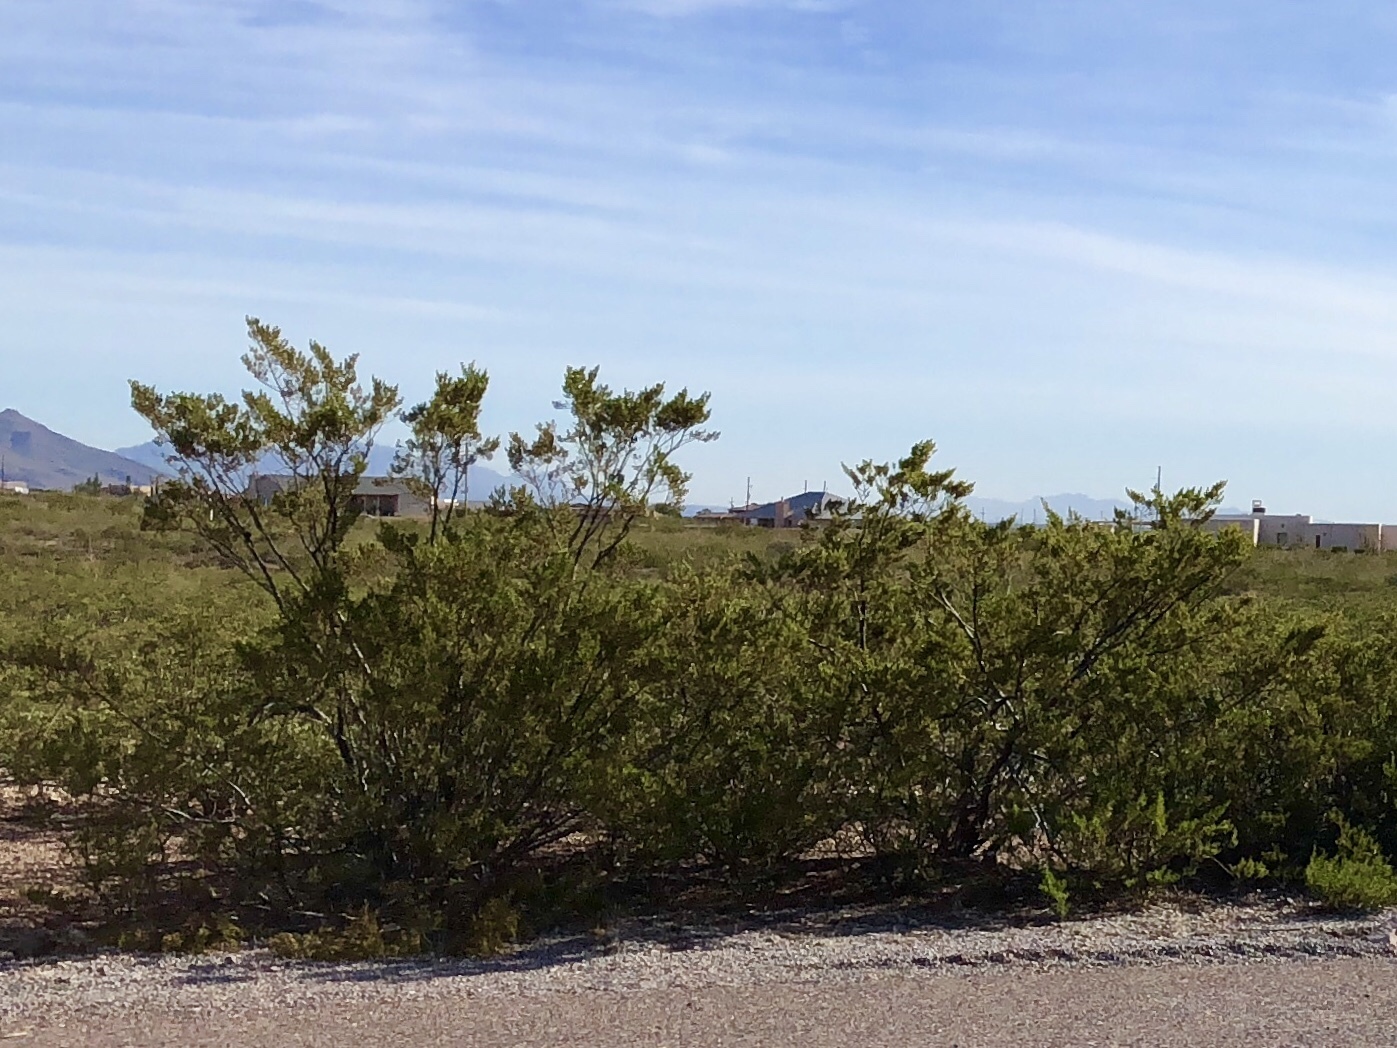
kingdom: Plantae
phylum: Tracheophyta
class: Magnoliopsida
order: Zygophyllales
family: Zygophyllaceae
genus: Larrea
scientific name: Larrea tridentata
